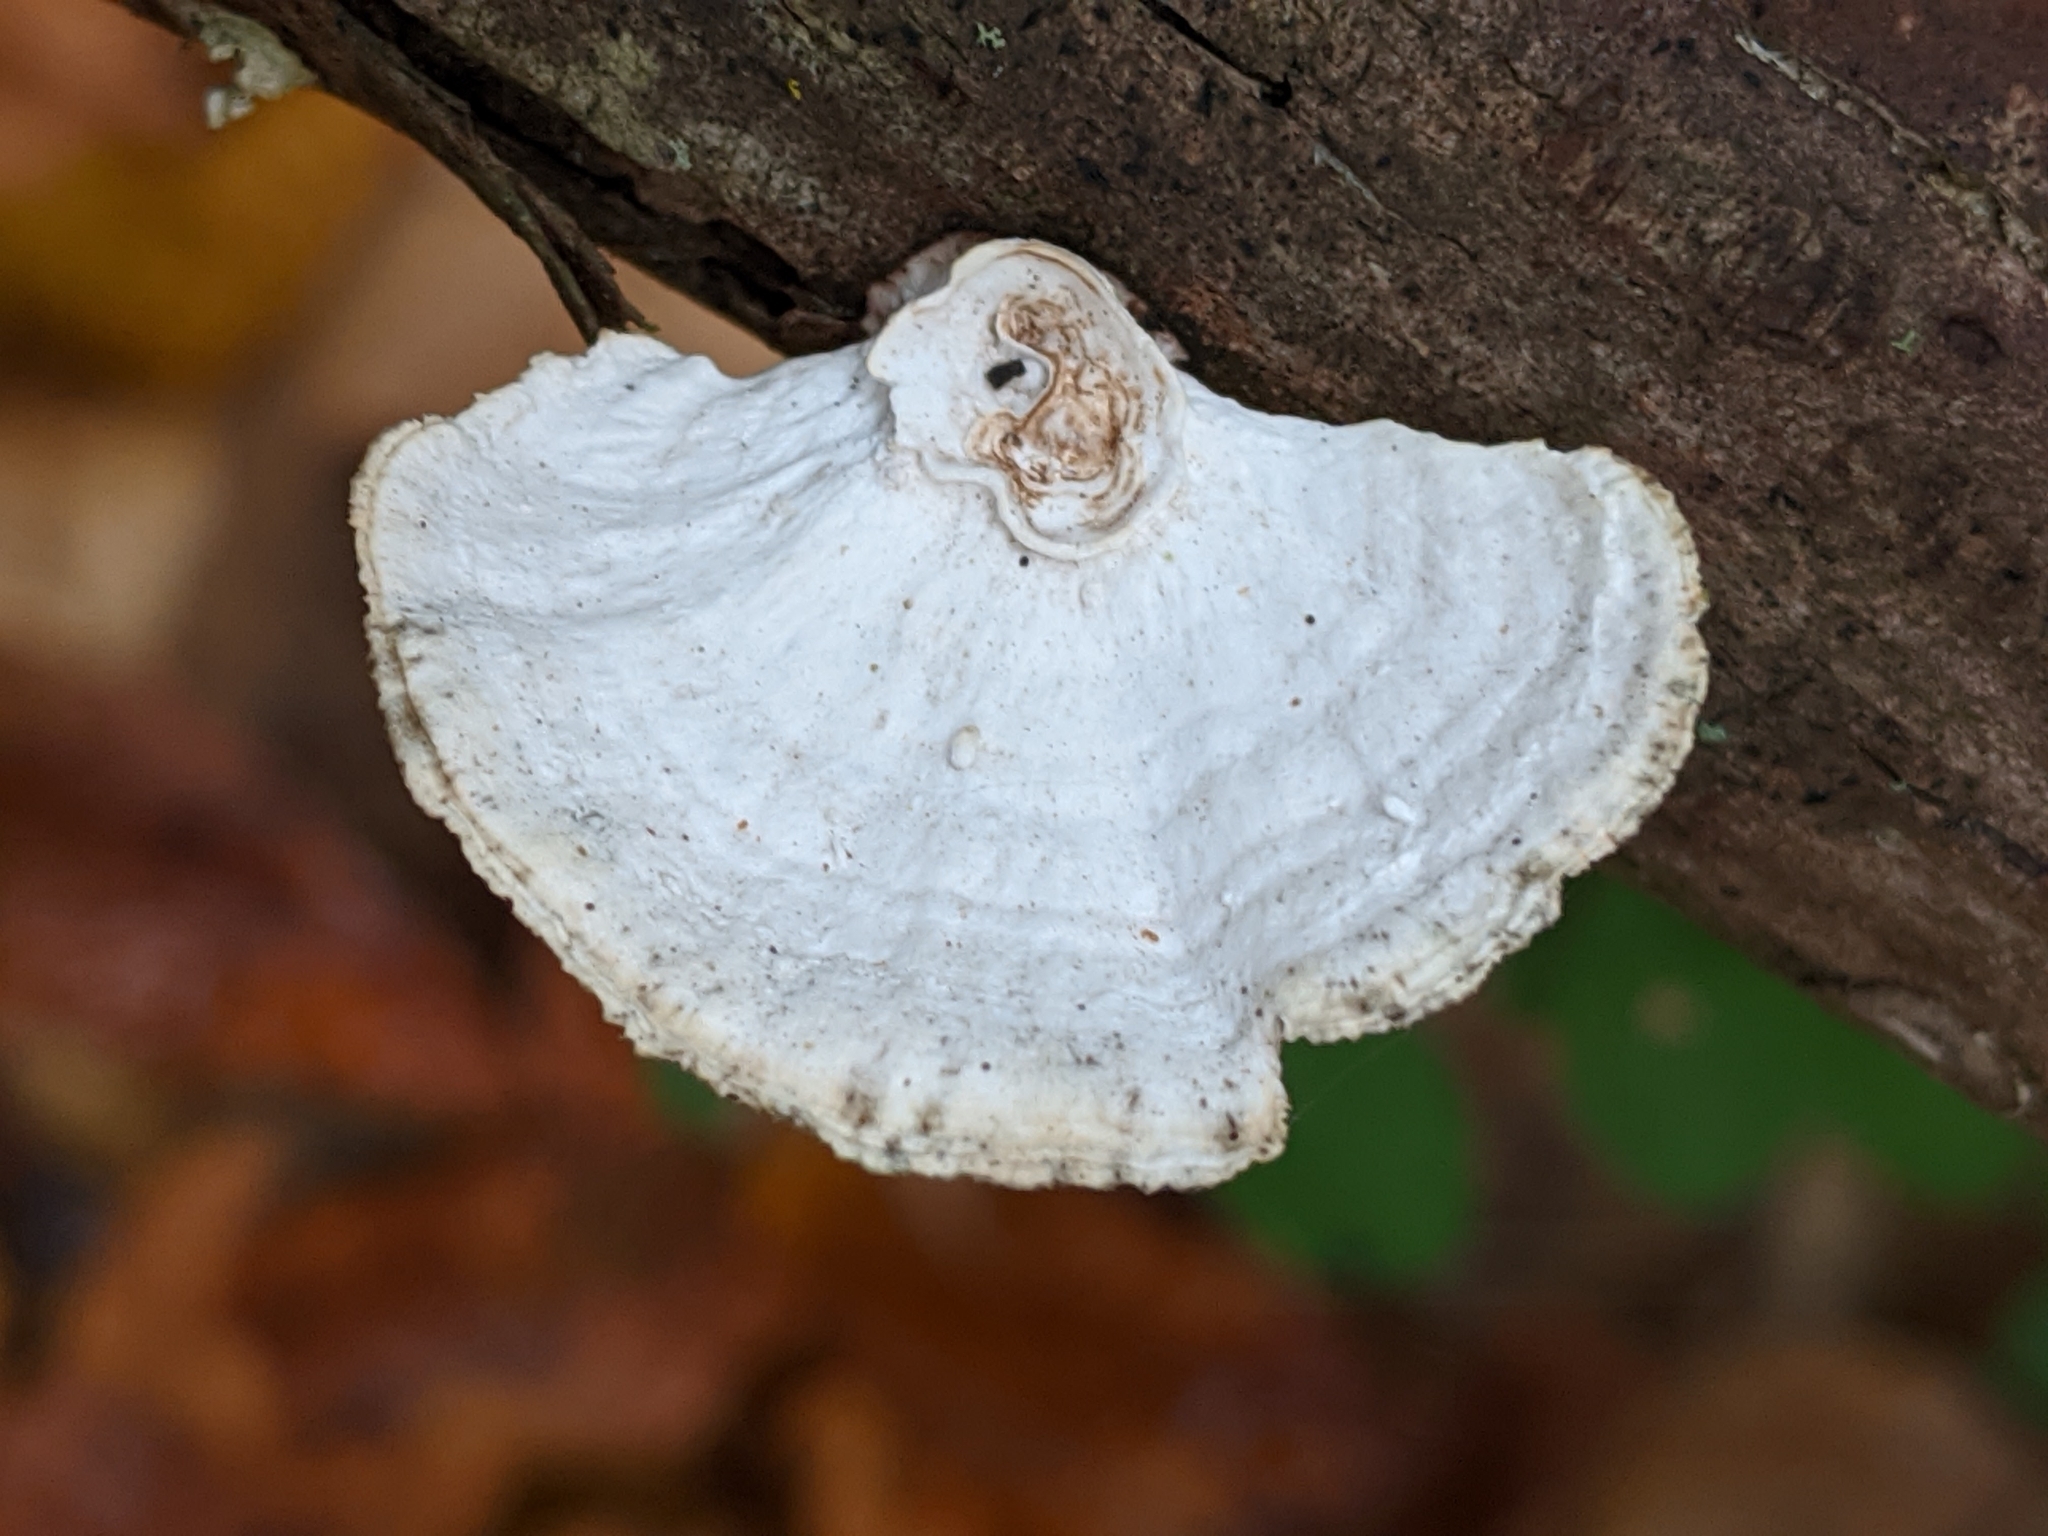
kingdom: Fungi
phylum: Basidiomycota
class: Agaricomycetes
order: Polyporales
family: Polyporaceae
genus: Poronidulus
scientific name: Poronidulus conchifer
